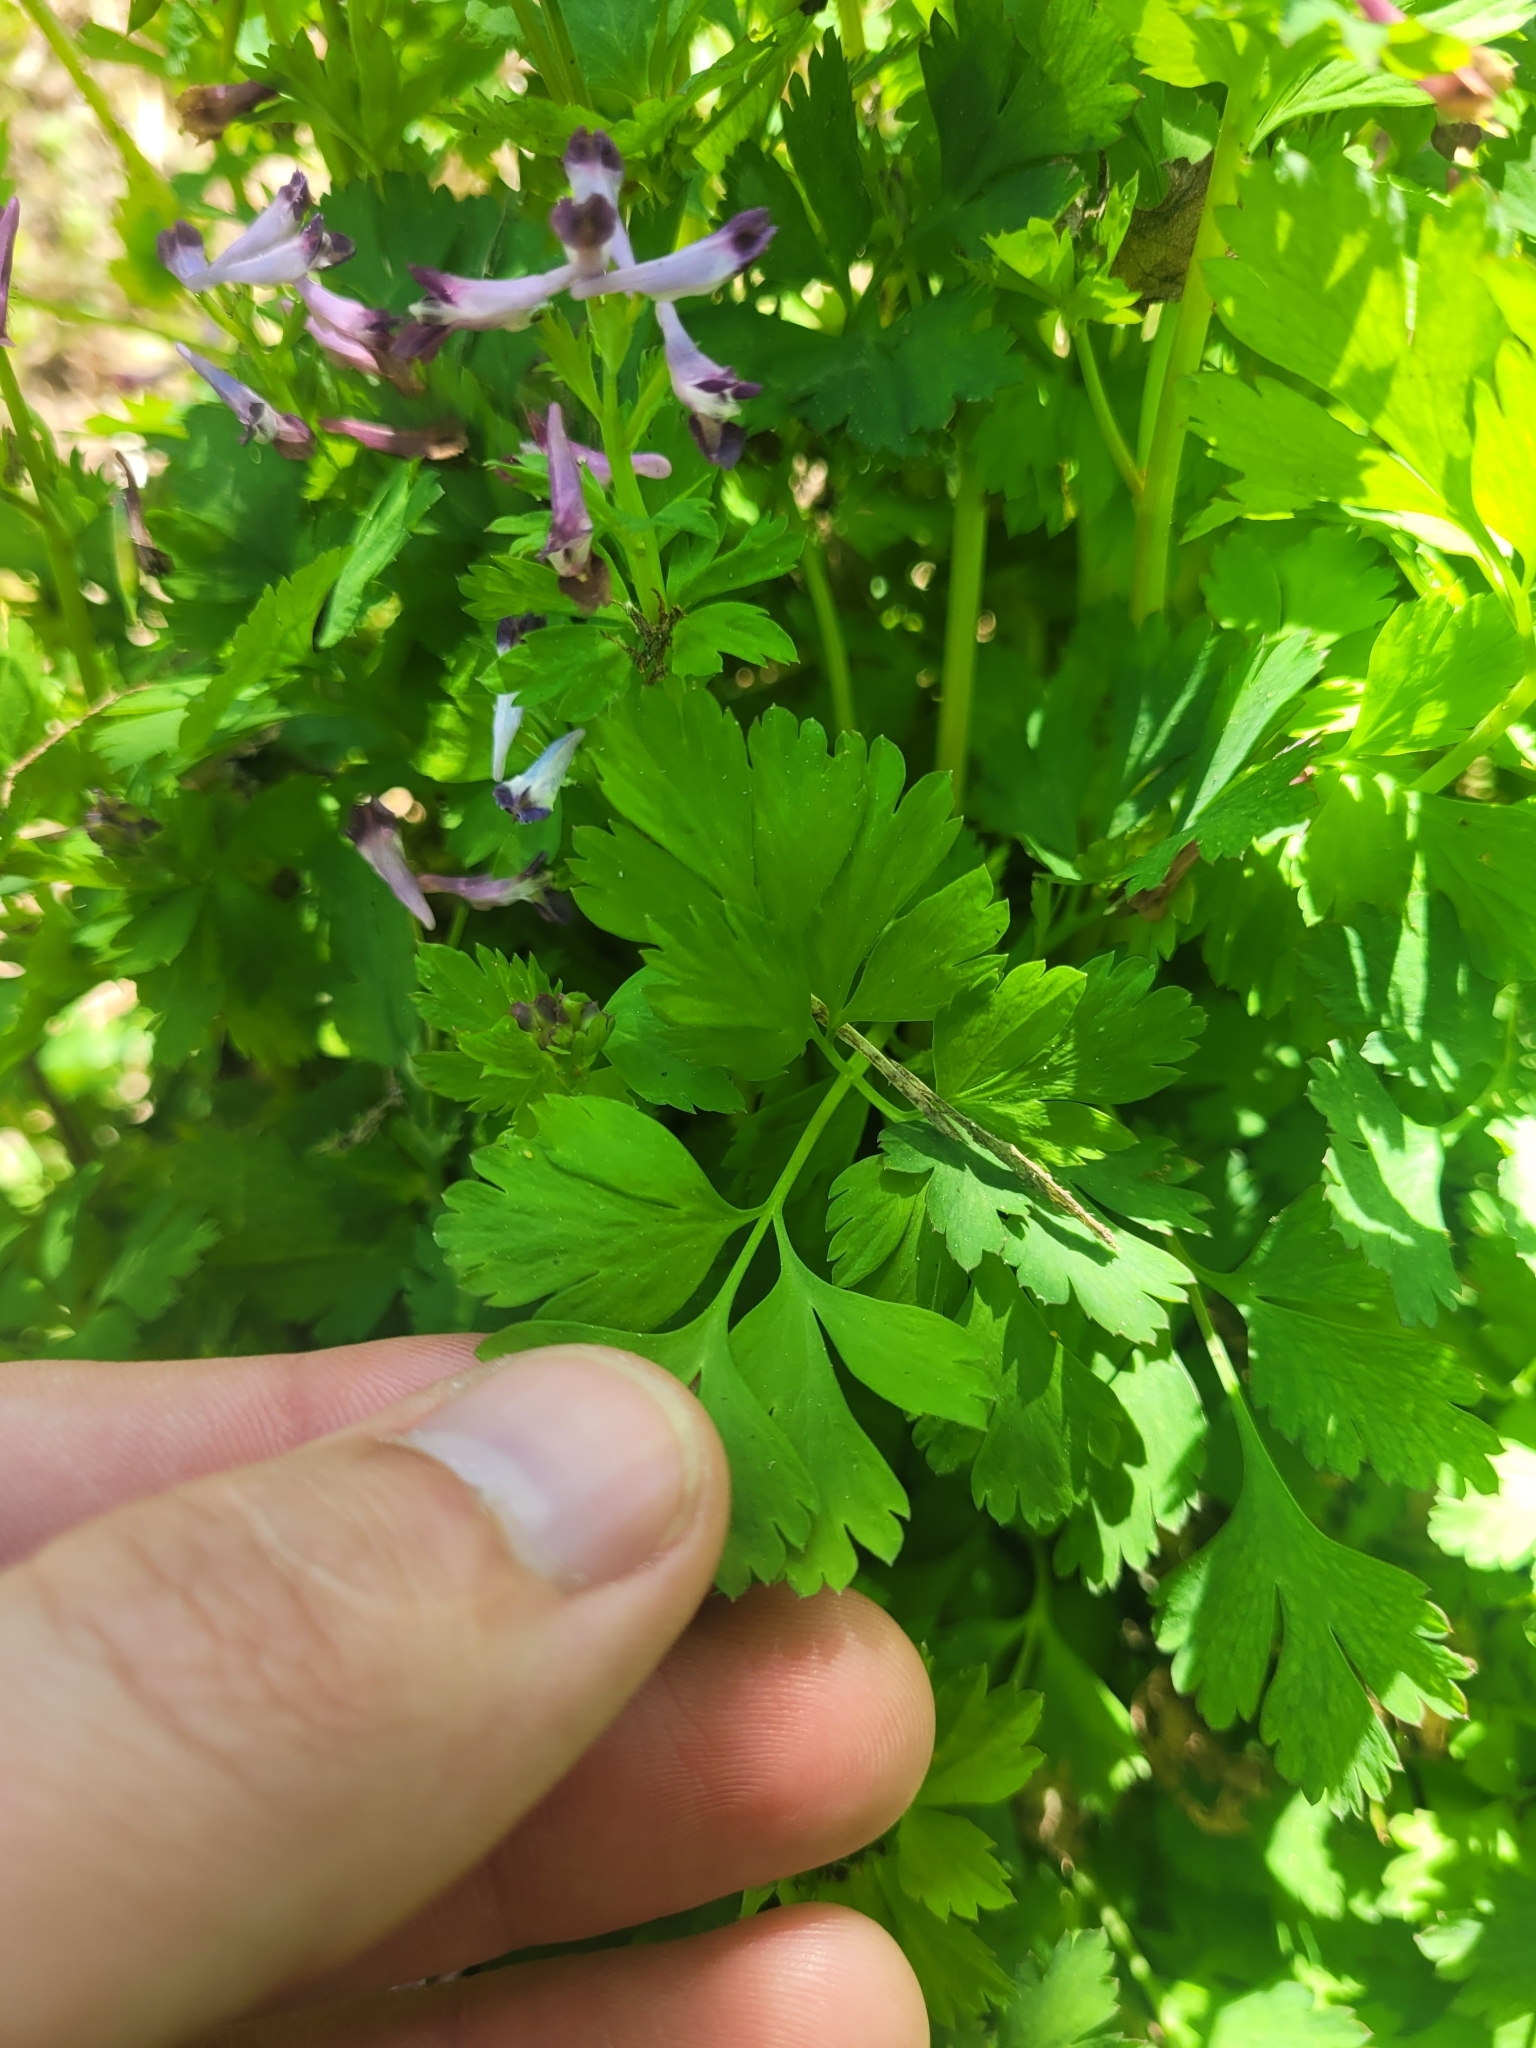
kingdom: Plantae
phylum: Tracheophyta
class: Magnoliopsida
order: Ranunculales
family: Papaveraceae
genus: Corydalis
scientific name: Corydalis incisa
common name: Incised fumewort
